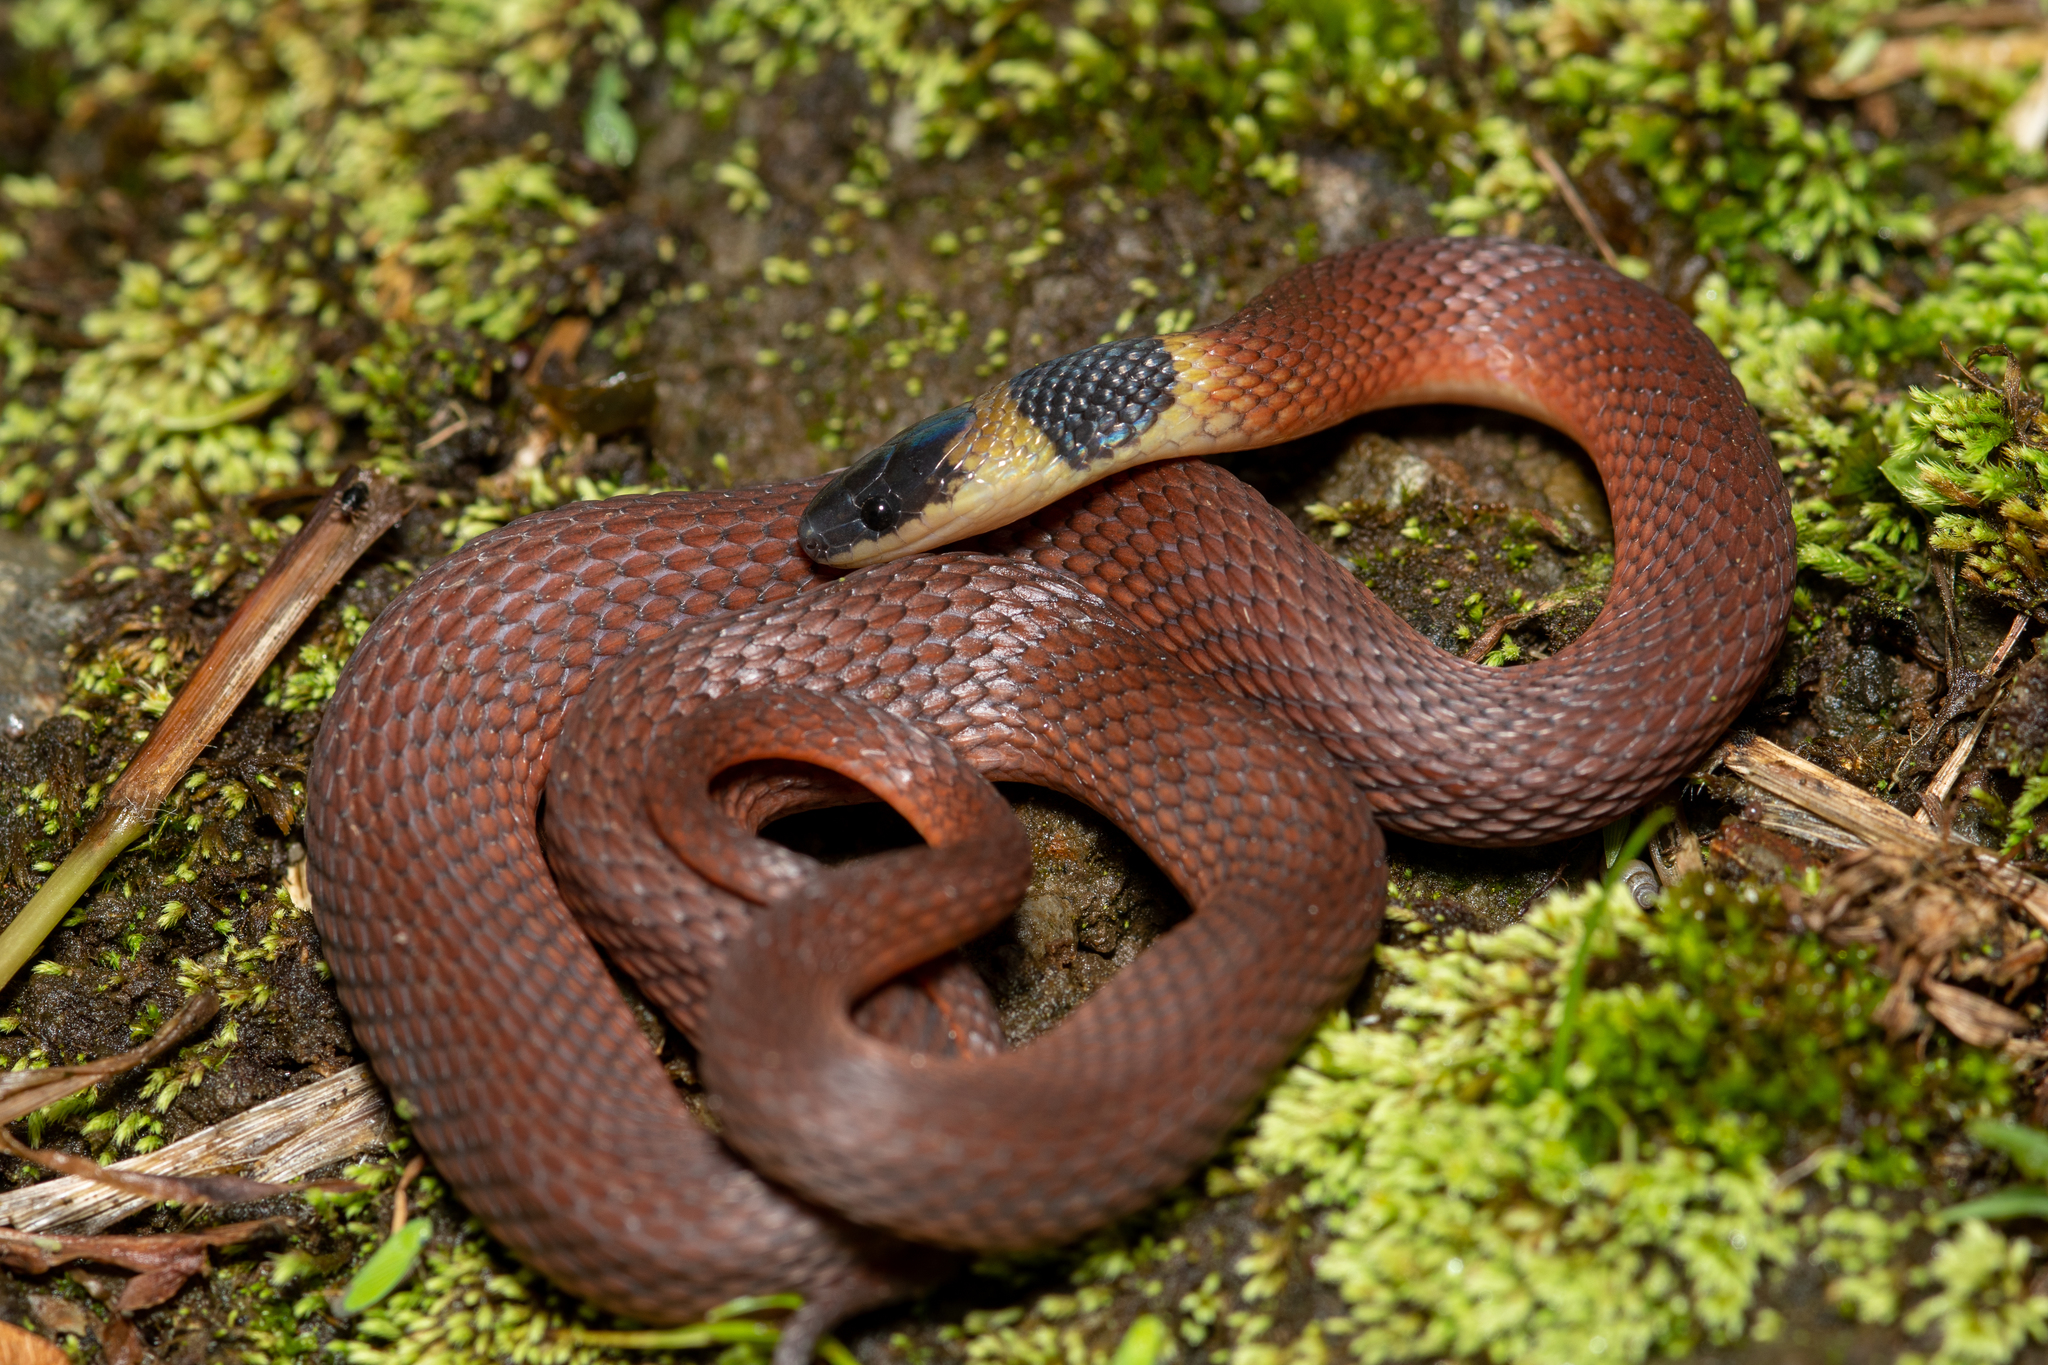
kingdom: Animalia
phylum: Chordata
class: Squamata
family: Colubridae
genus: Ninia
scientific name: Ninia sebae
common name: Redback coffee snake
